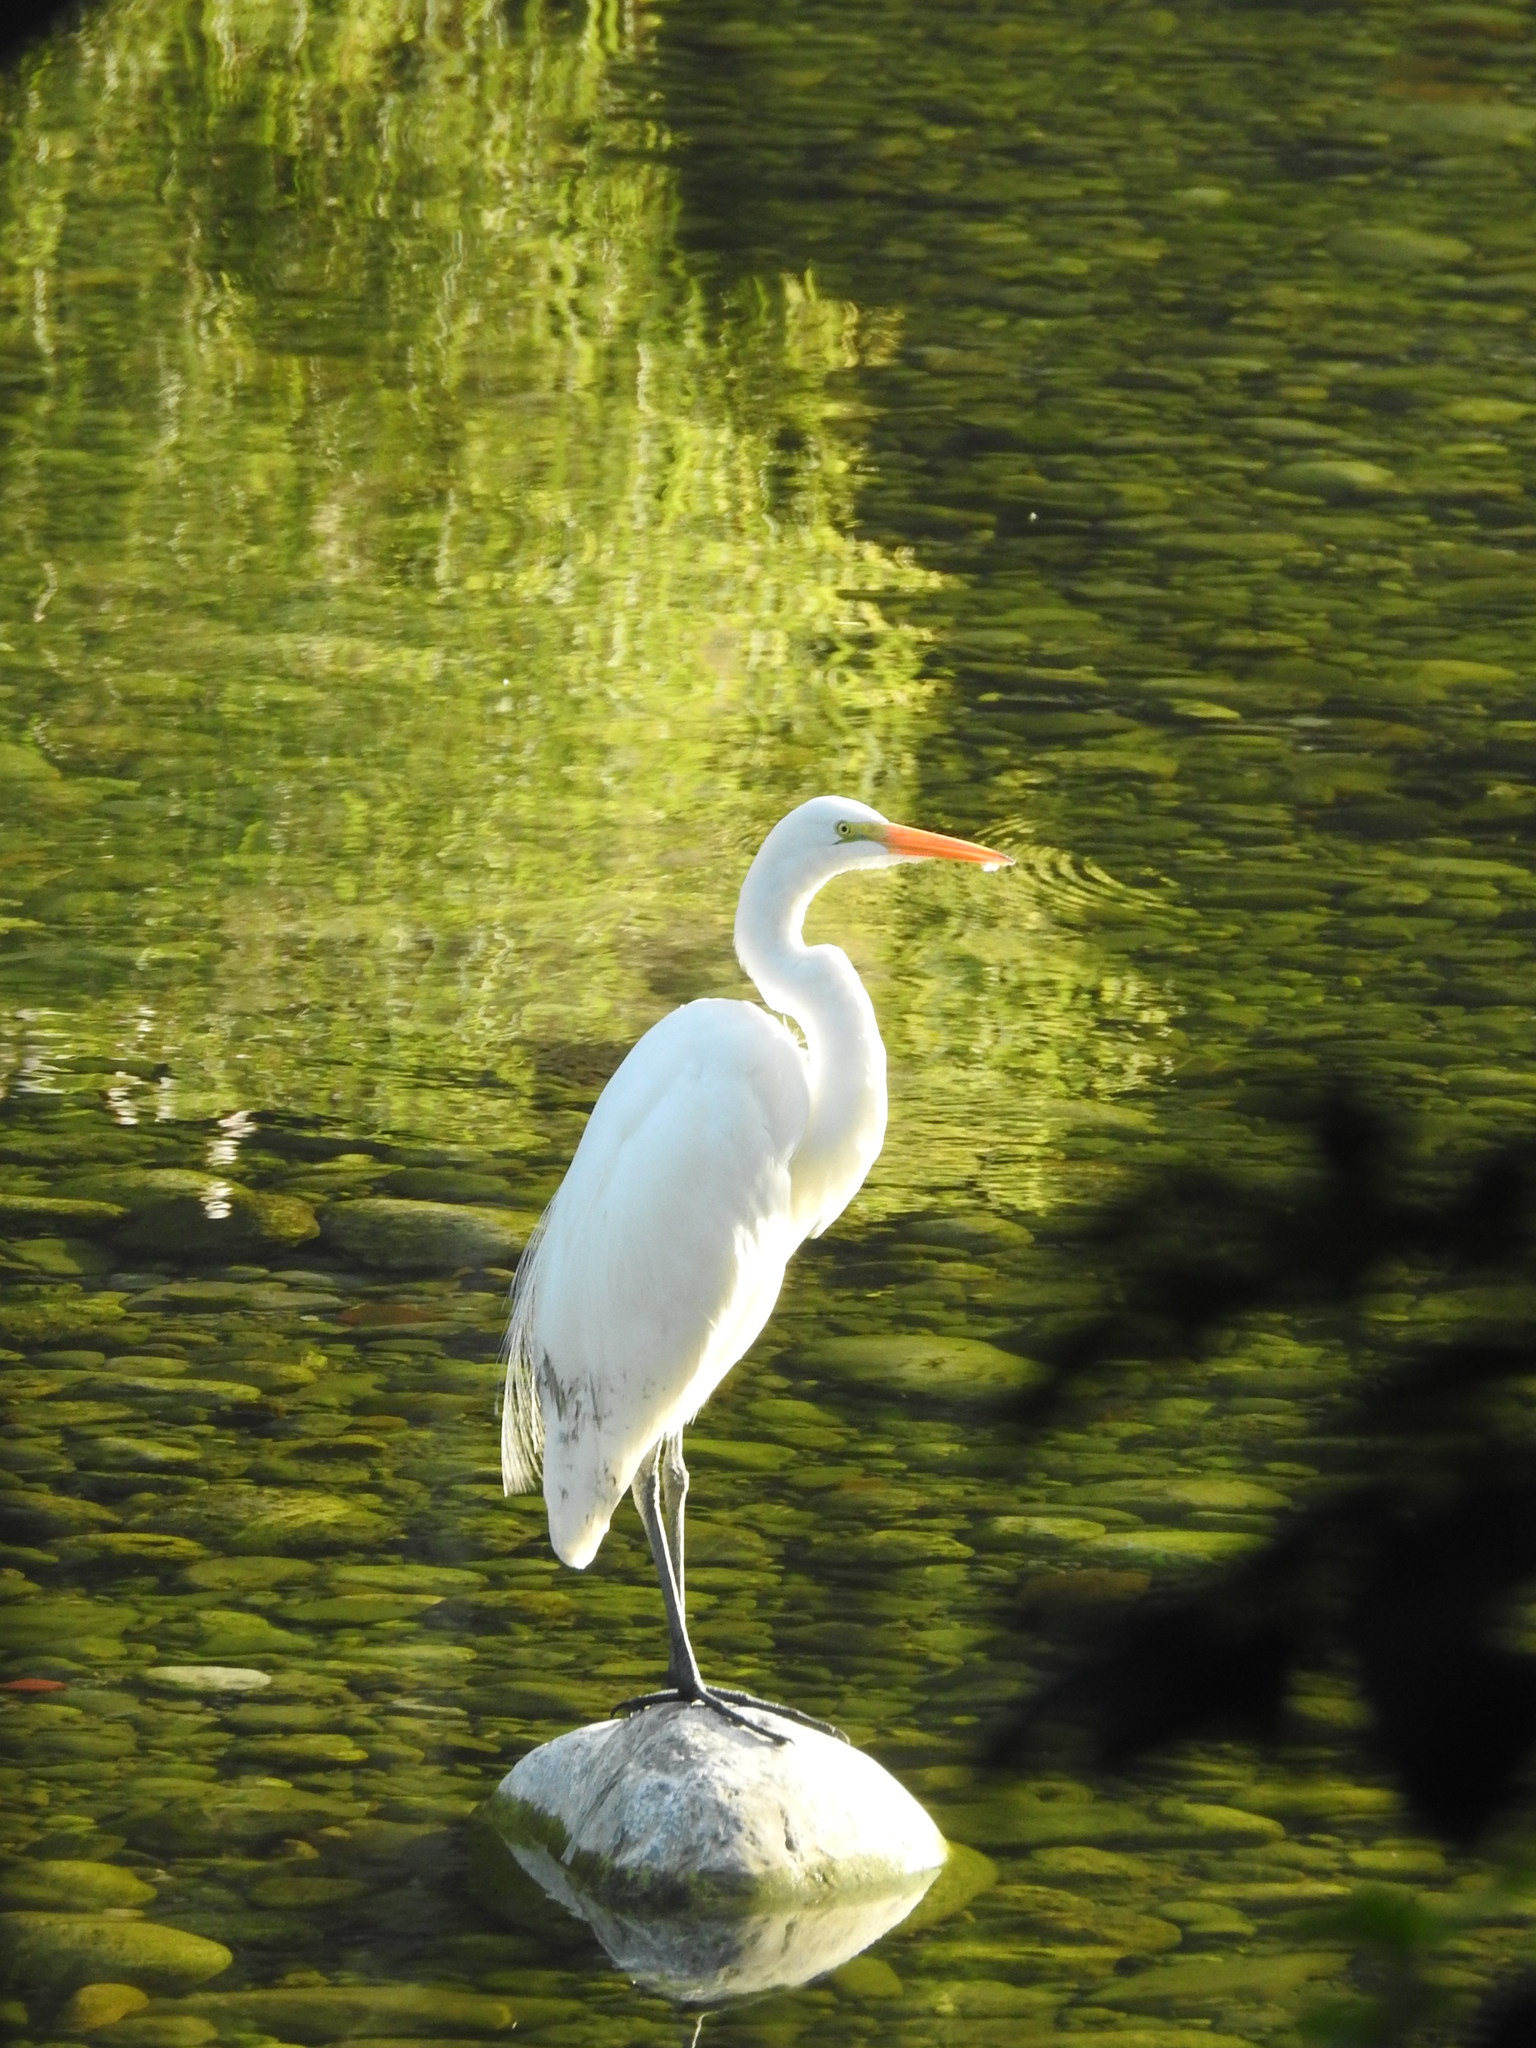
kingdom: Animalia
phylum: Chordata
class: Aves
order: Pelecaniformes
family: Ardeidae
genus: Ardea
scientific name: Ardea alba
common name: Great egret
